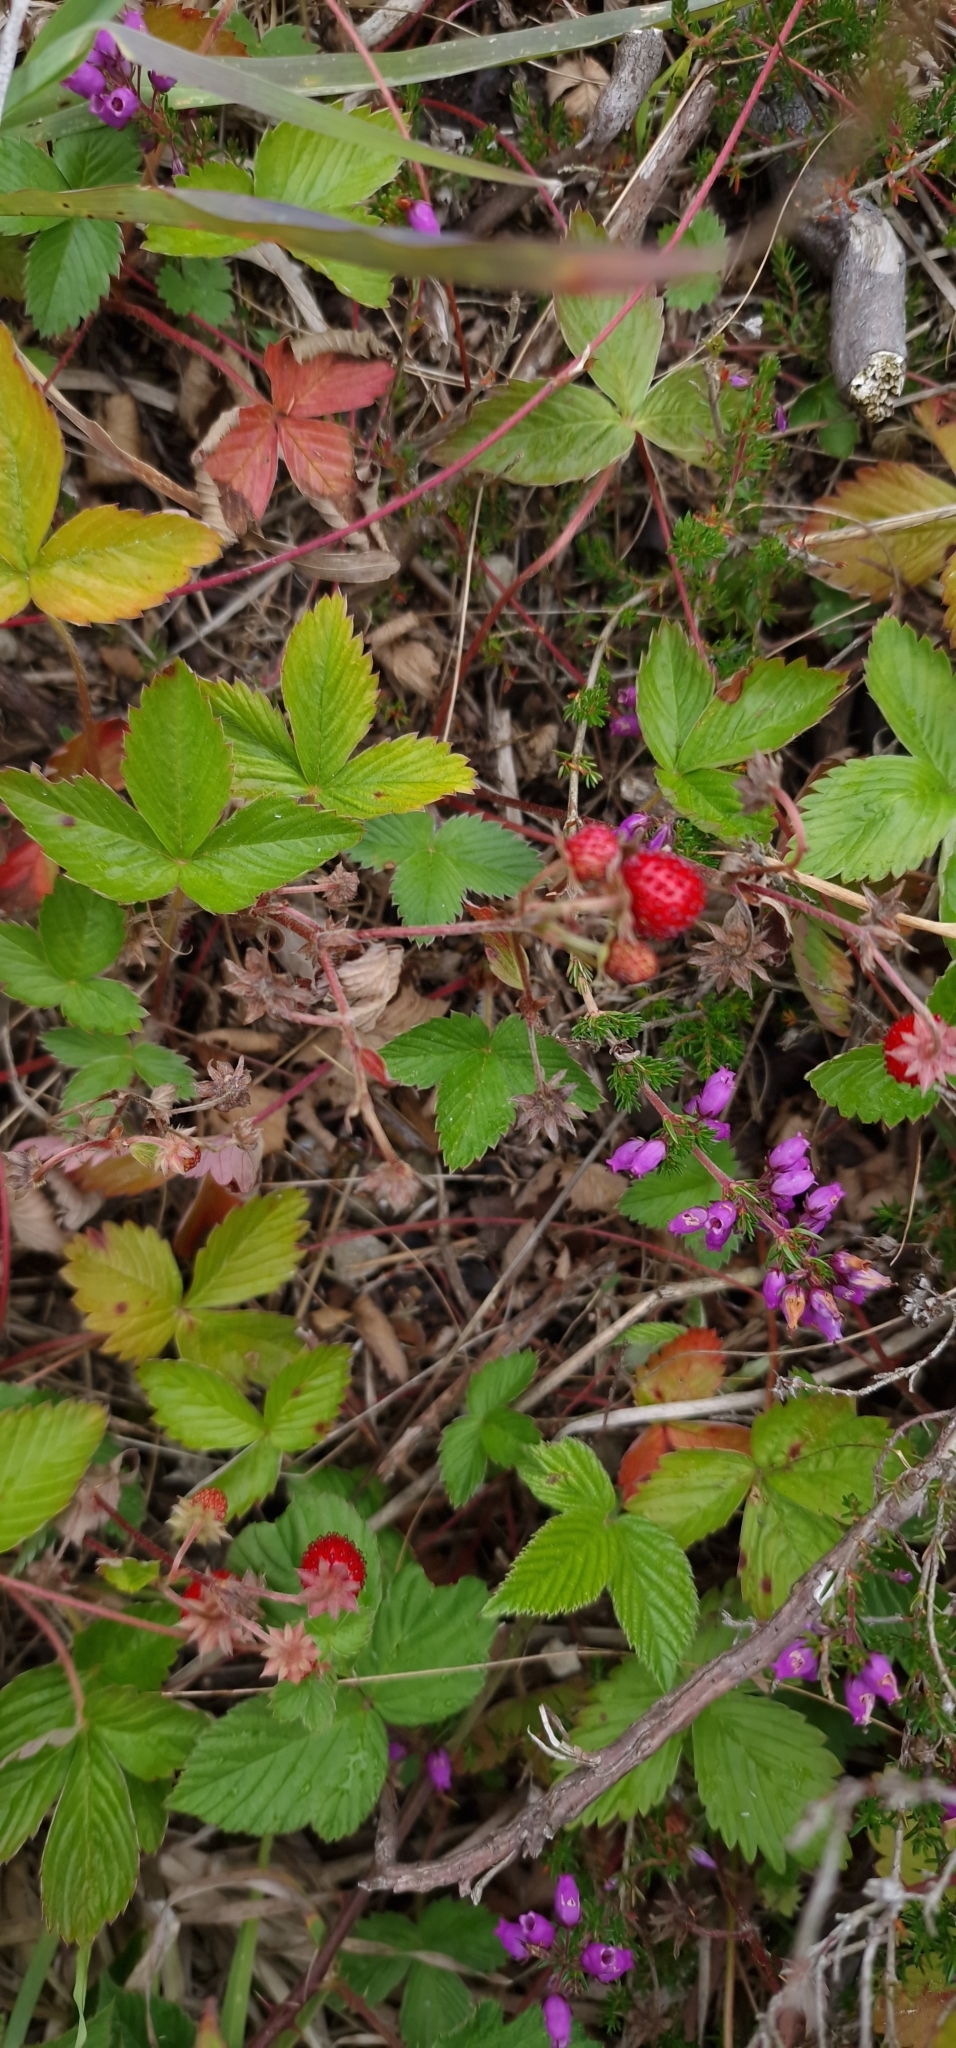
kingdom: Plantae
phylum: Tracheophyta
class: Magnoliopsida
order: Rosales
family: Rosaceae
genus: Fragaria
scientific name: Fragaria vesca
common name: Wild strawberry
